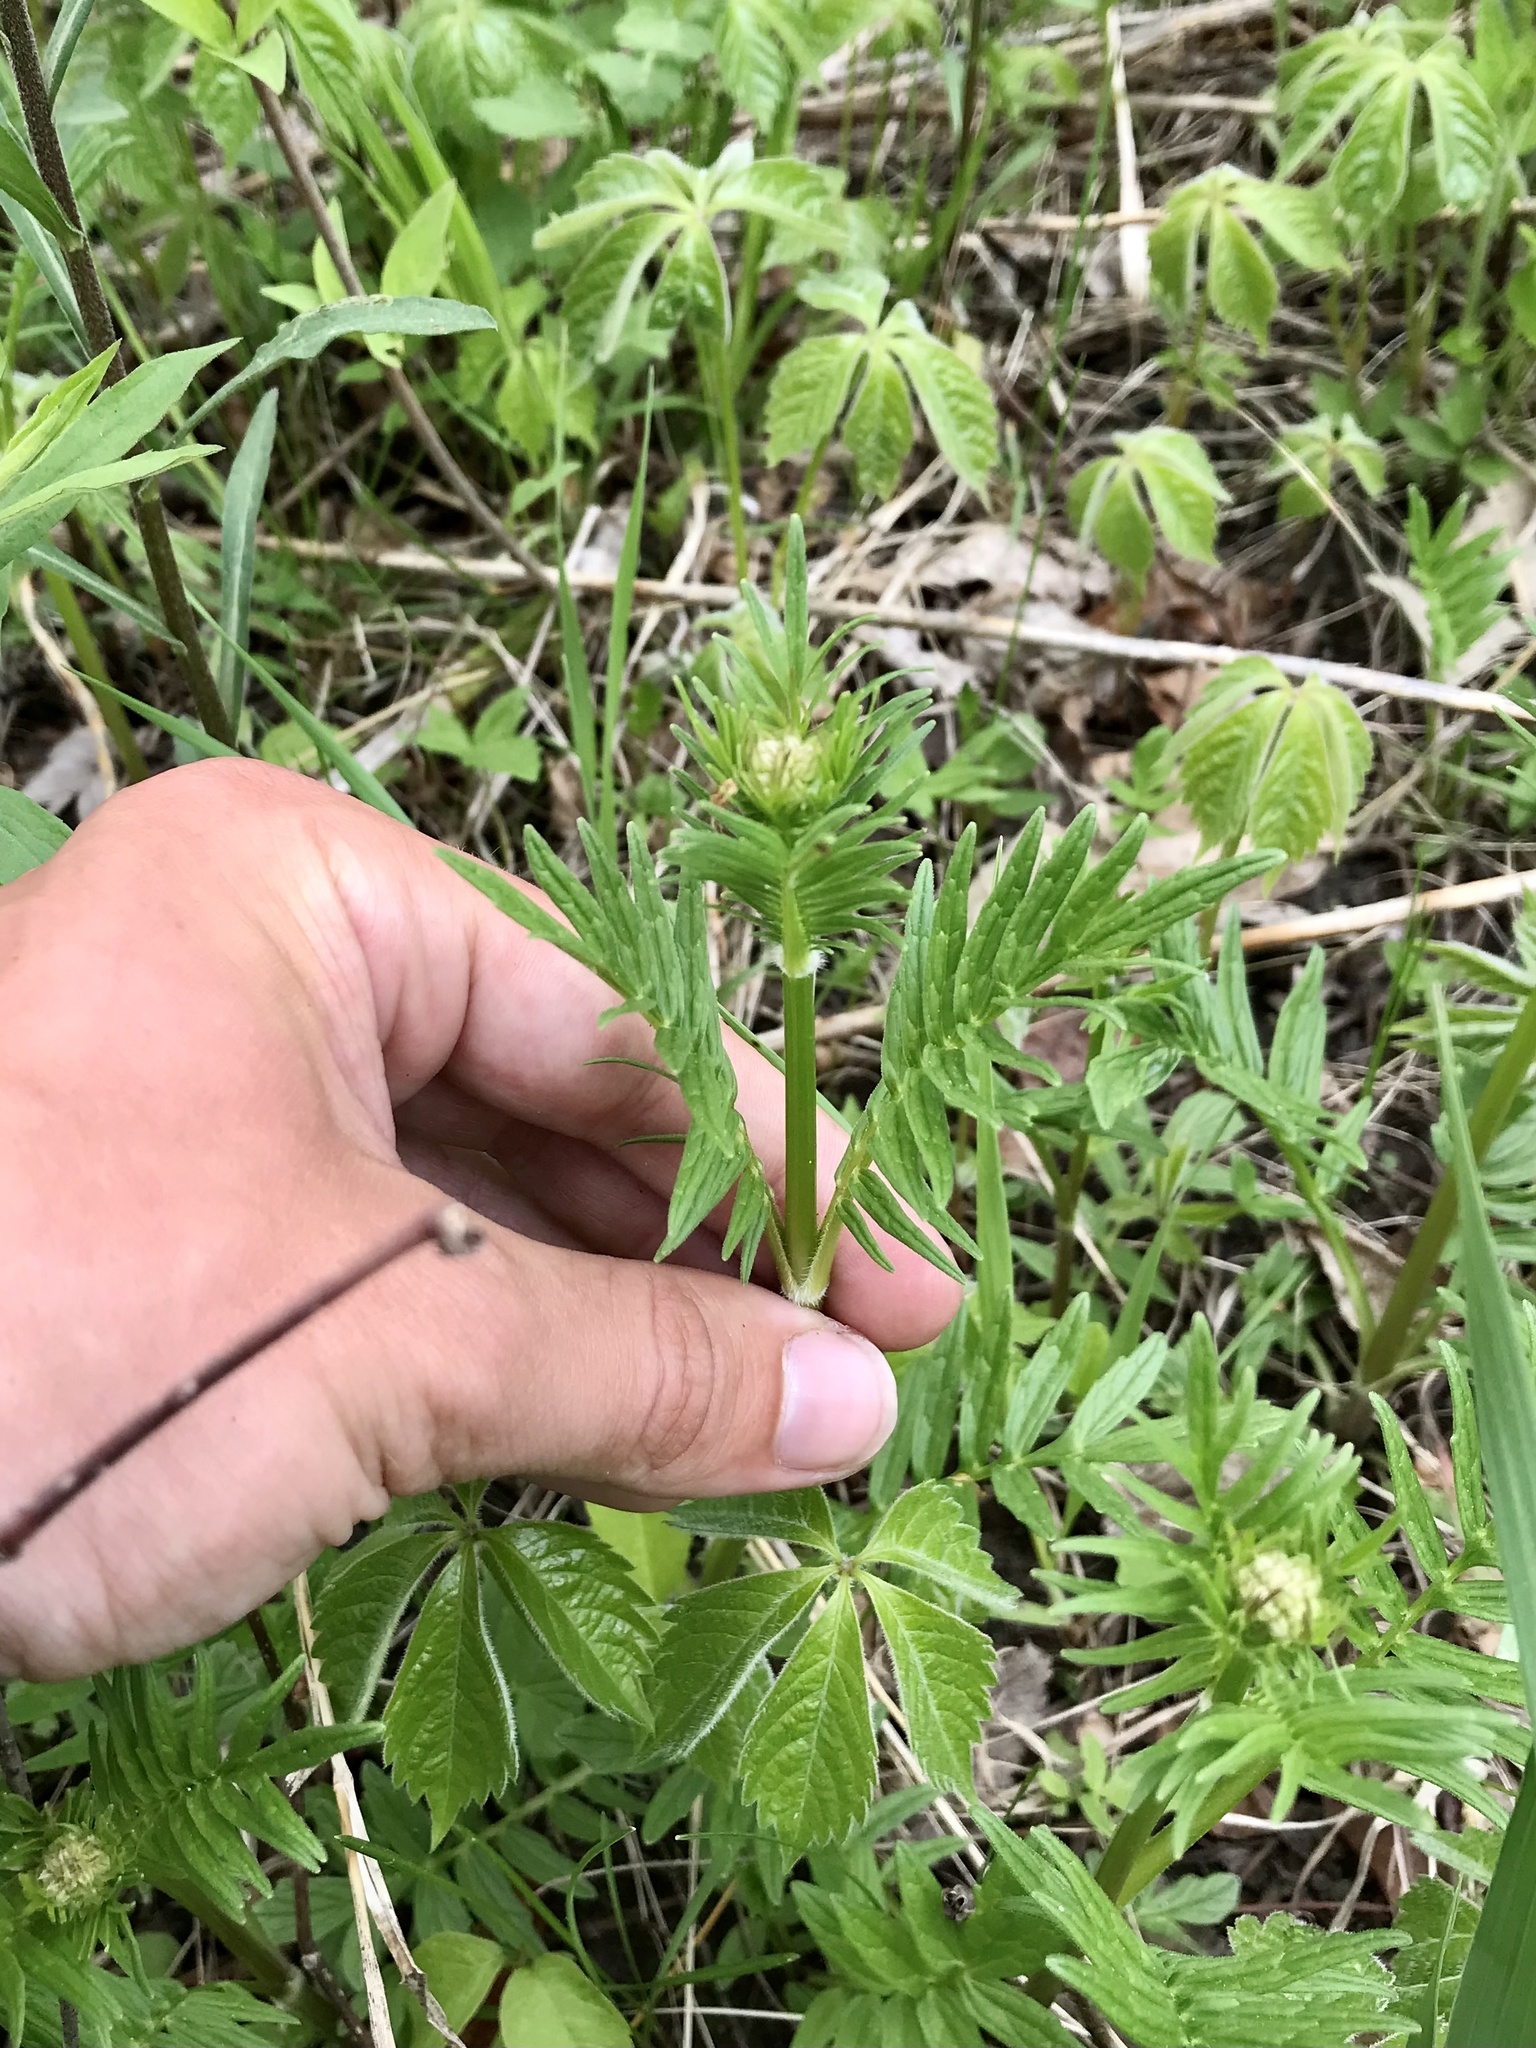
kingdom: Plantae
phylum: Tracheophyta
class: Magnoliopsida
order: Dipsacales
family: Caprifoliaceae
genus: Valeriana
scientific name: Valeriana officinalis
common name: Common valerian
